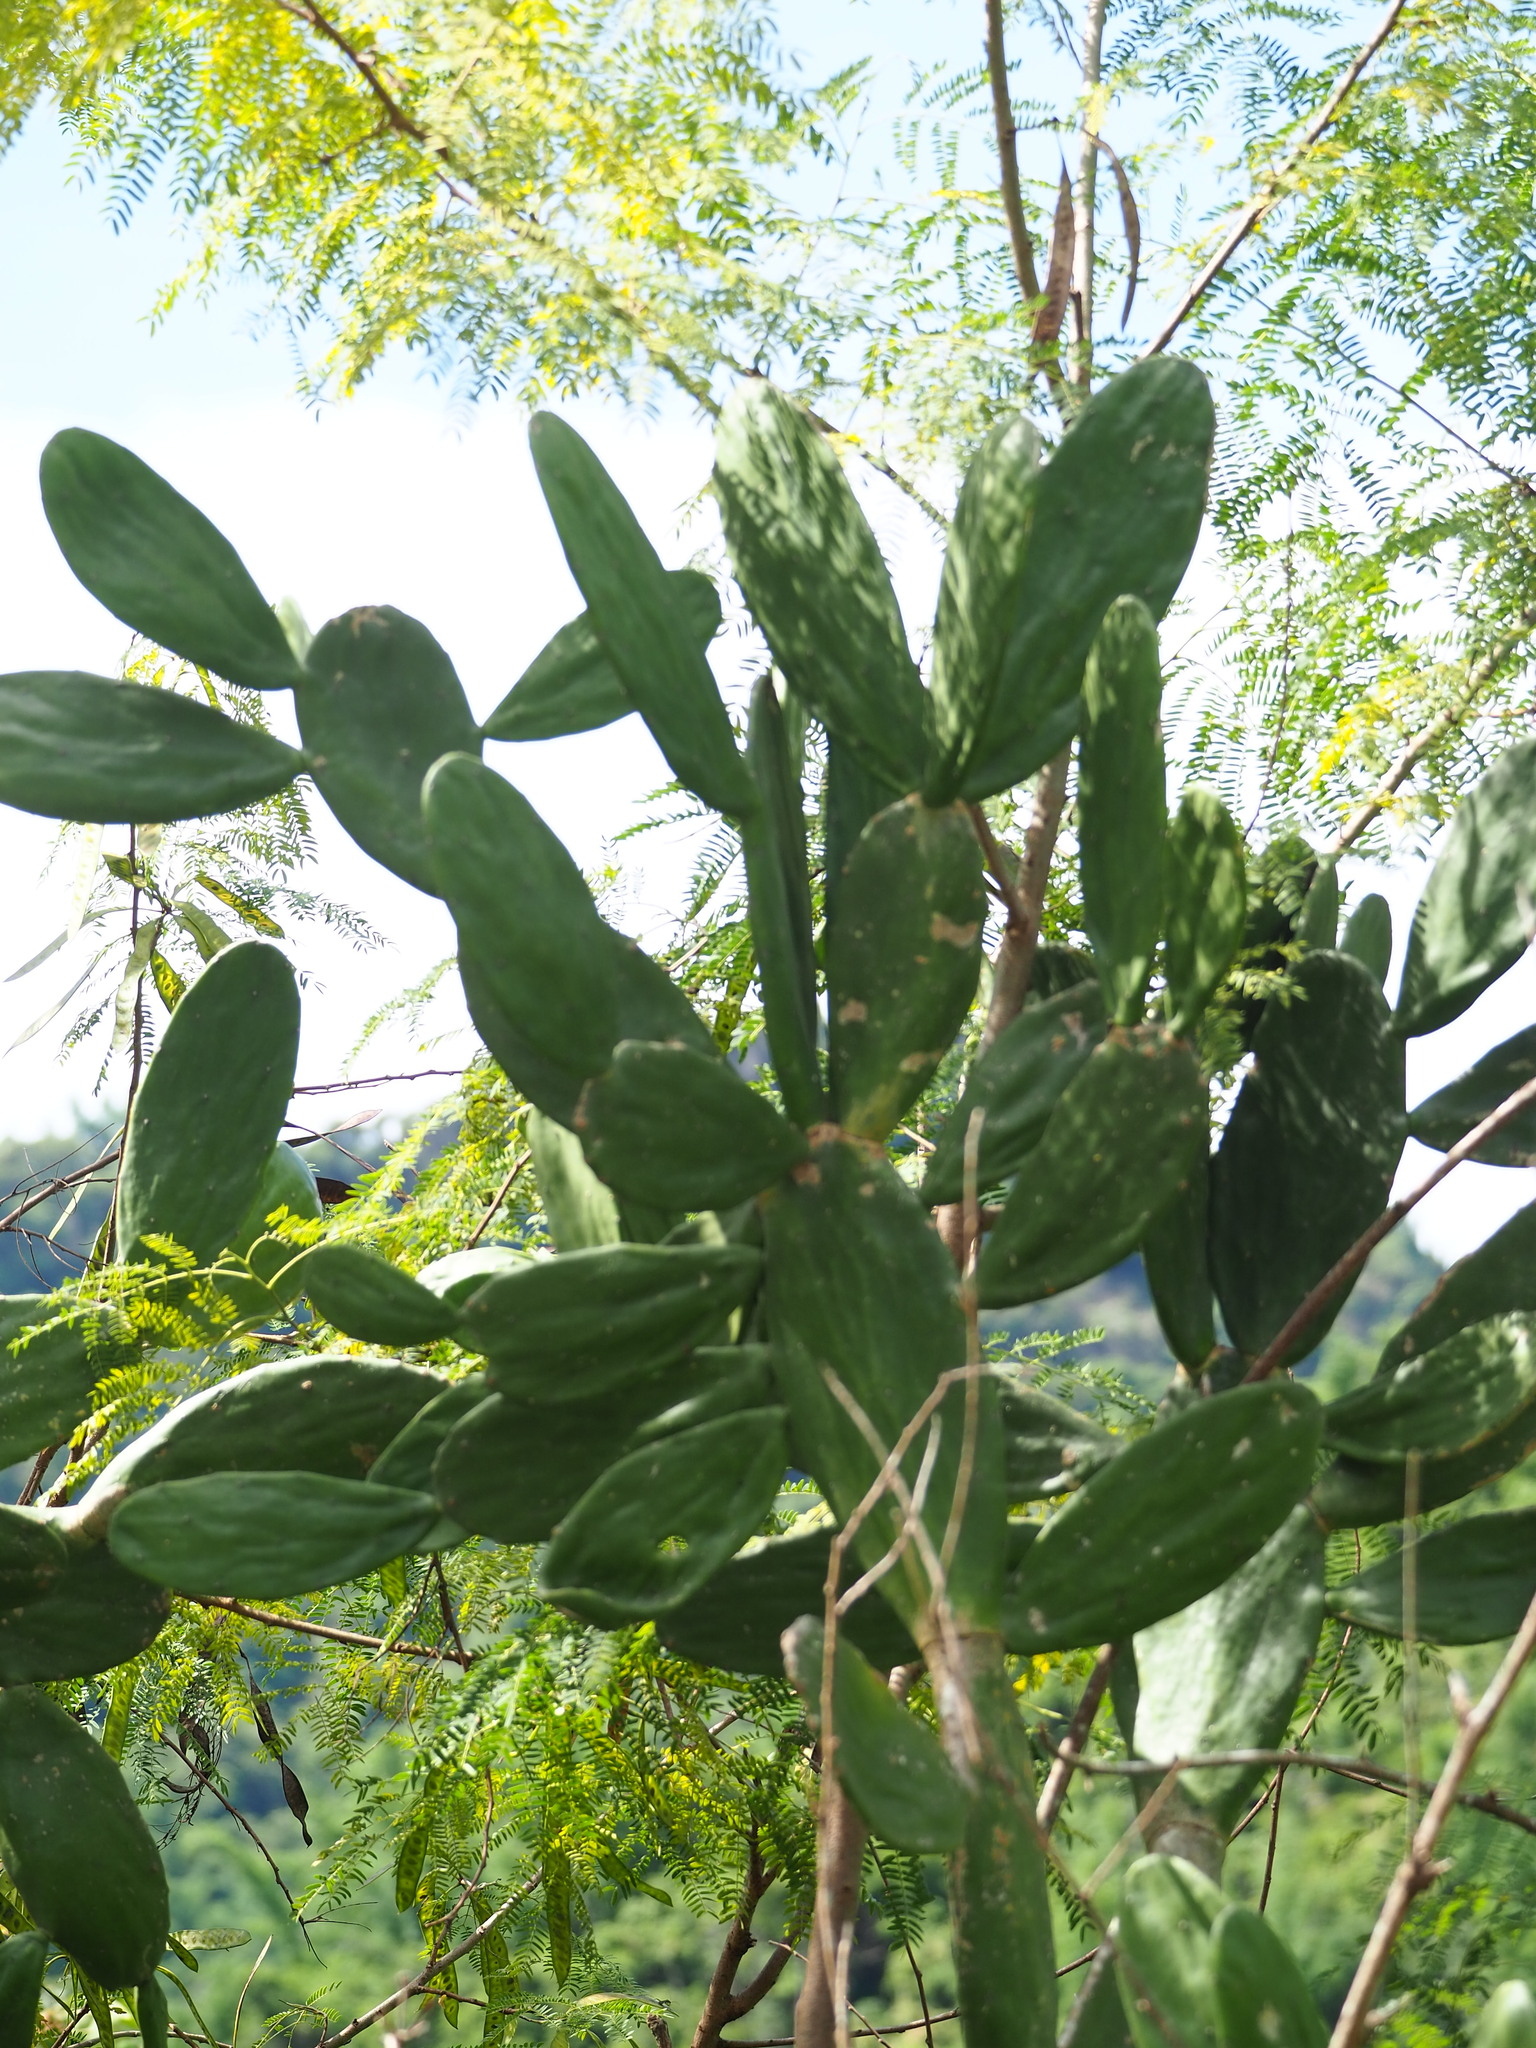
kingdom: Plantae
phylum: Tracheophyta
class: Magnoliopsida
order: Caryophyllales
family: Cactaceae
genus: Opuntia
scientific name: Opuntia cochenillifera
